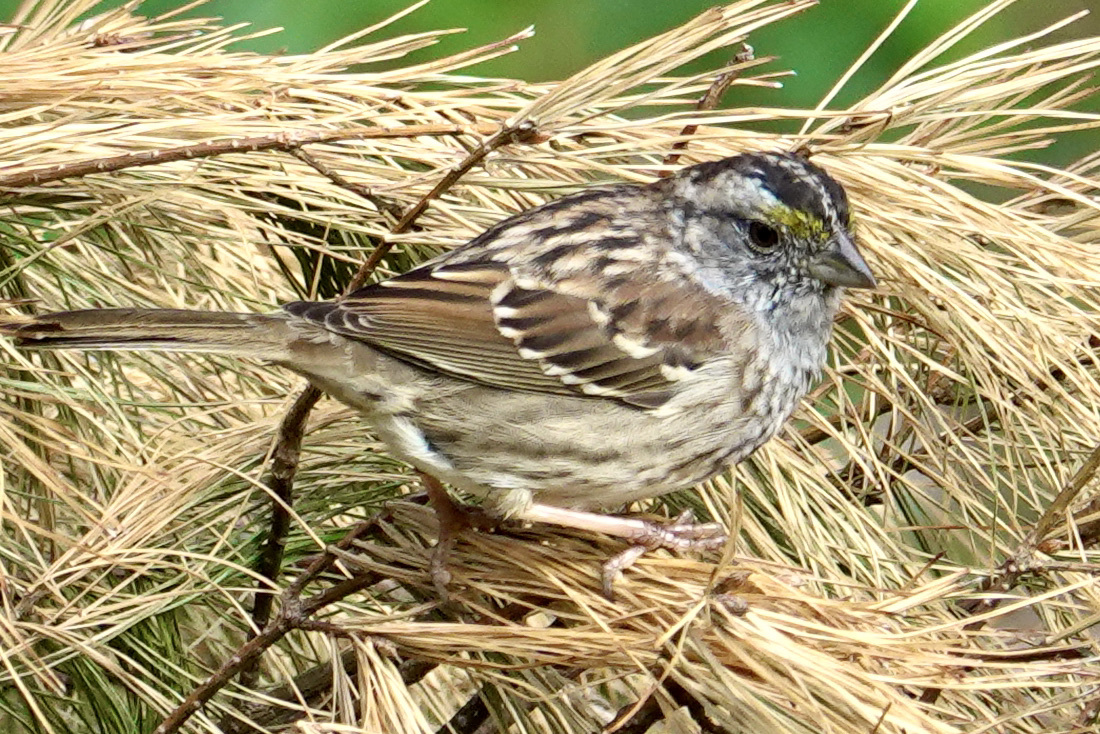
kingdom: Animalia
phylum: Chordata
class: Aves
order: Passeriformes
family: Passerellidae
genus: Zonotrichia
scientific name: Zonotrichia albicollis
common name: White-throated sparrow
